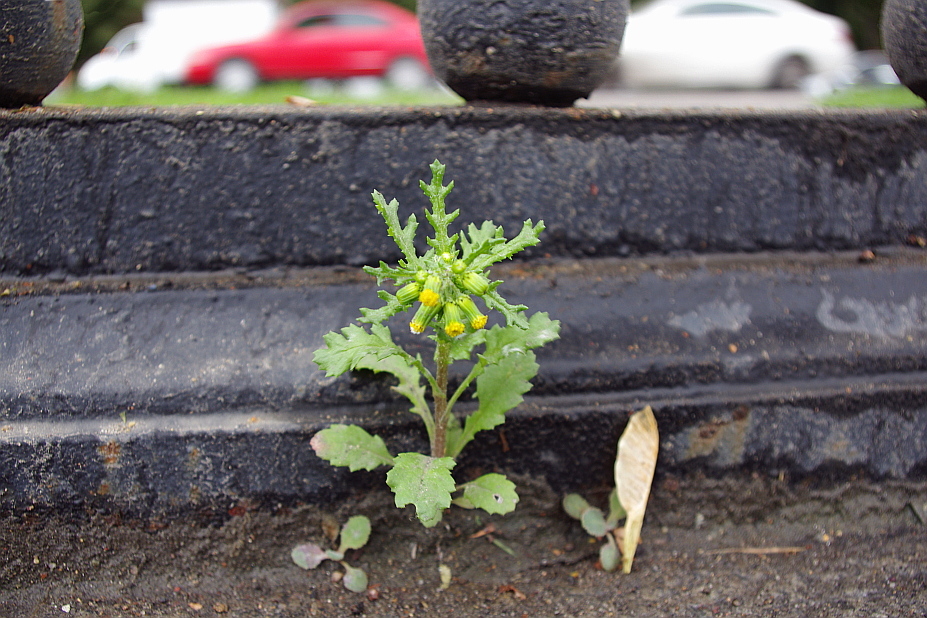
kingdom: Plantae
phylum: Tracheophyta
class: Magnoliopsida
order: Asterales
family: Asteraceae
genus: Senecio
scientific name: Senecio vulgaris
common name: Old-man-in-the-spring
